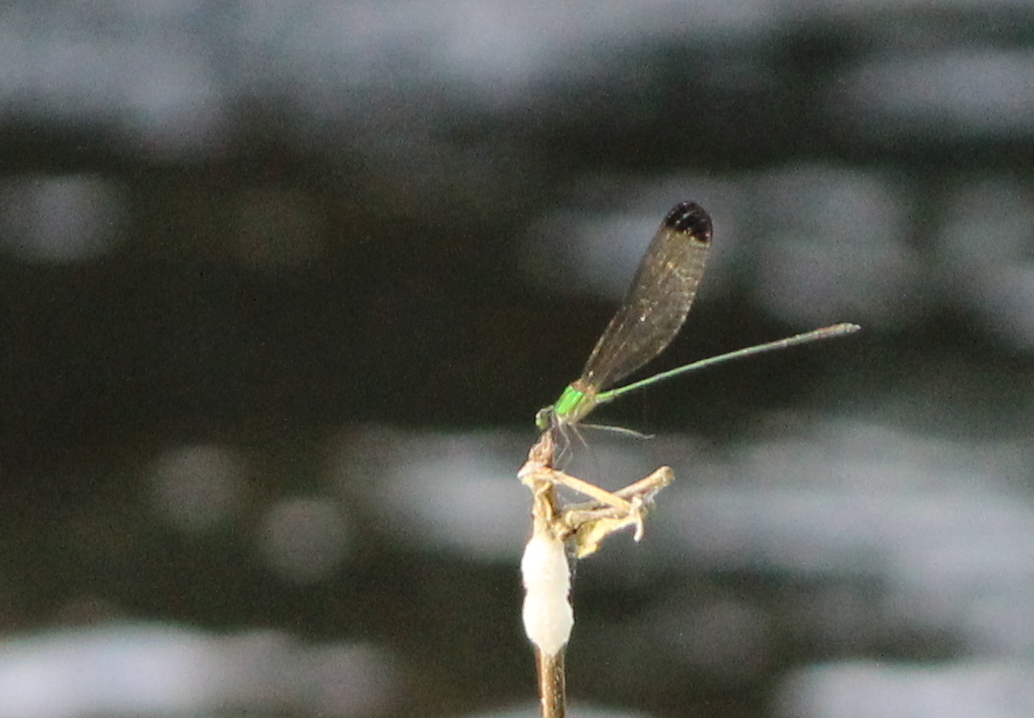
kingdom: Animalia
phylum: Arthropoda
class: Insecta
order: Odonata
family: Calopterygidae
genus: Vestalis
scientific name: Vestalis apicalis
